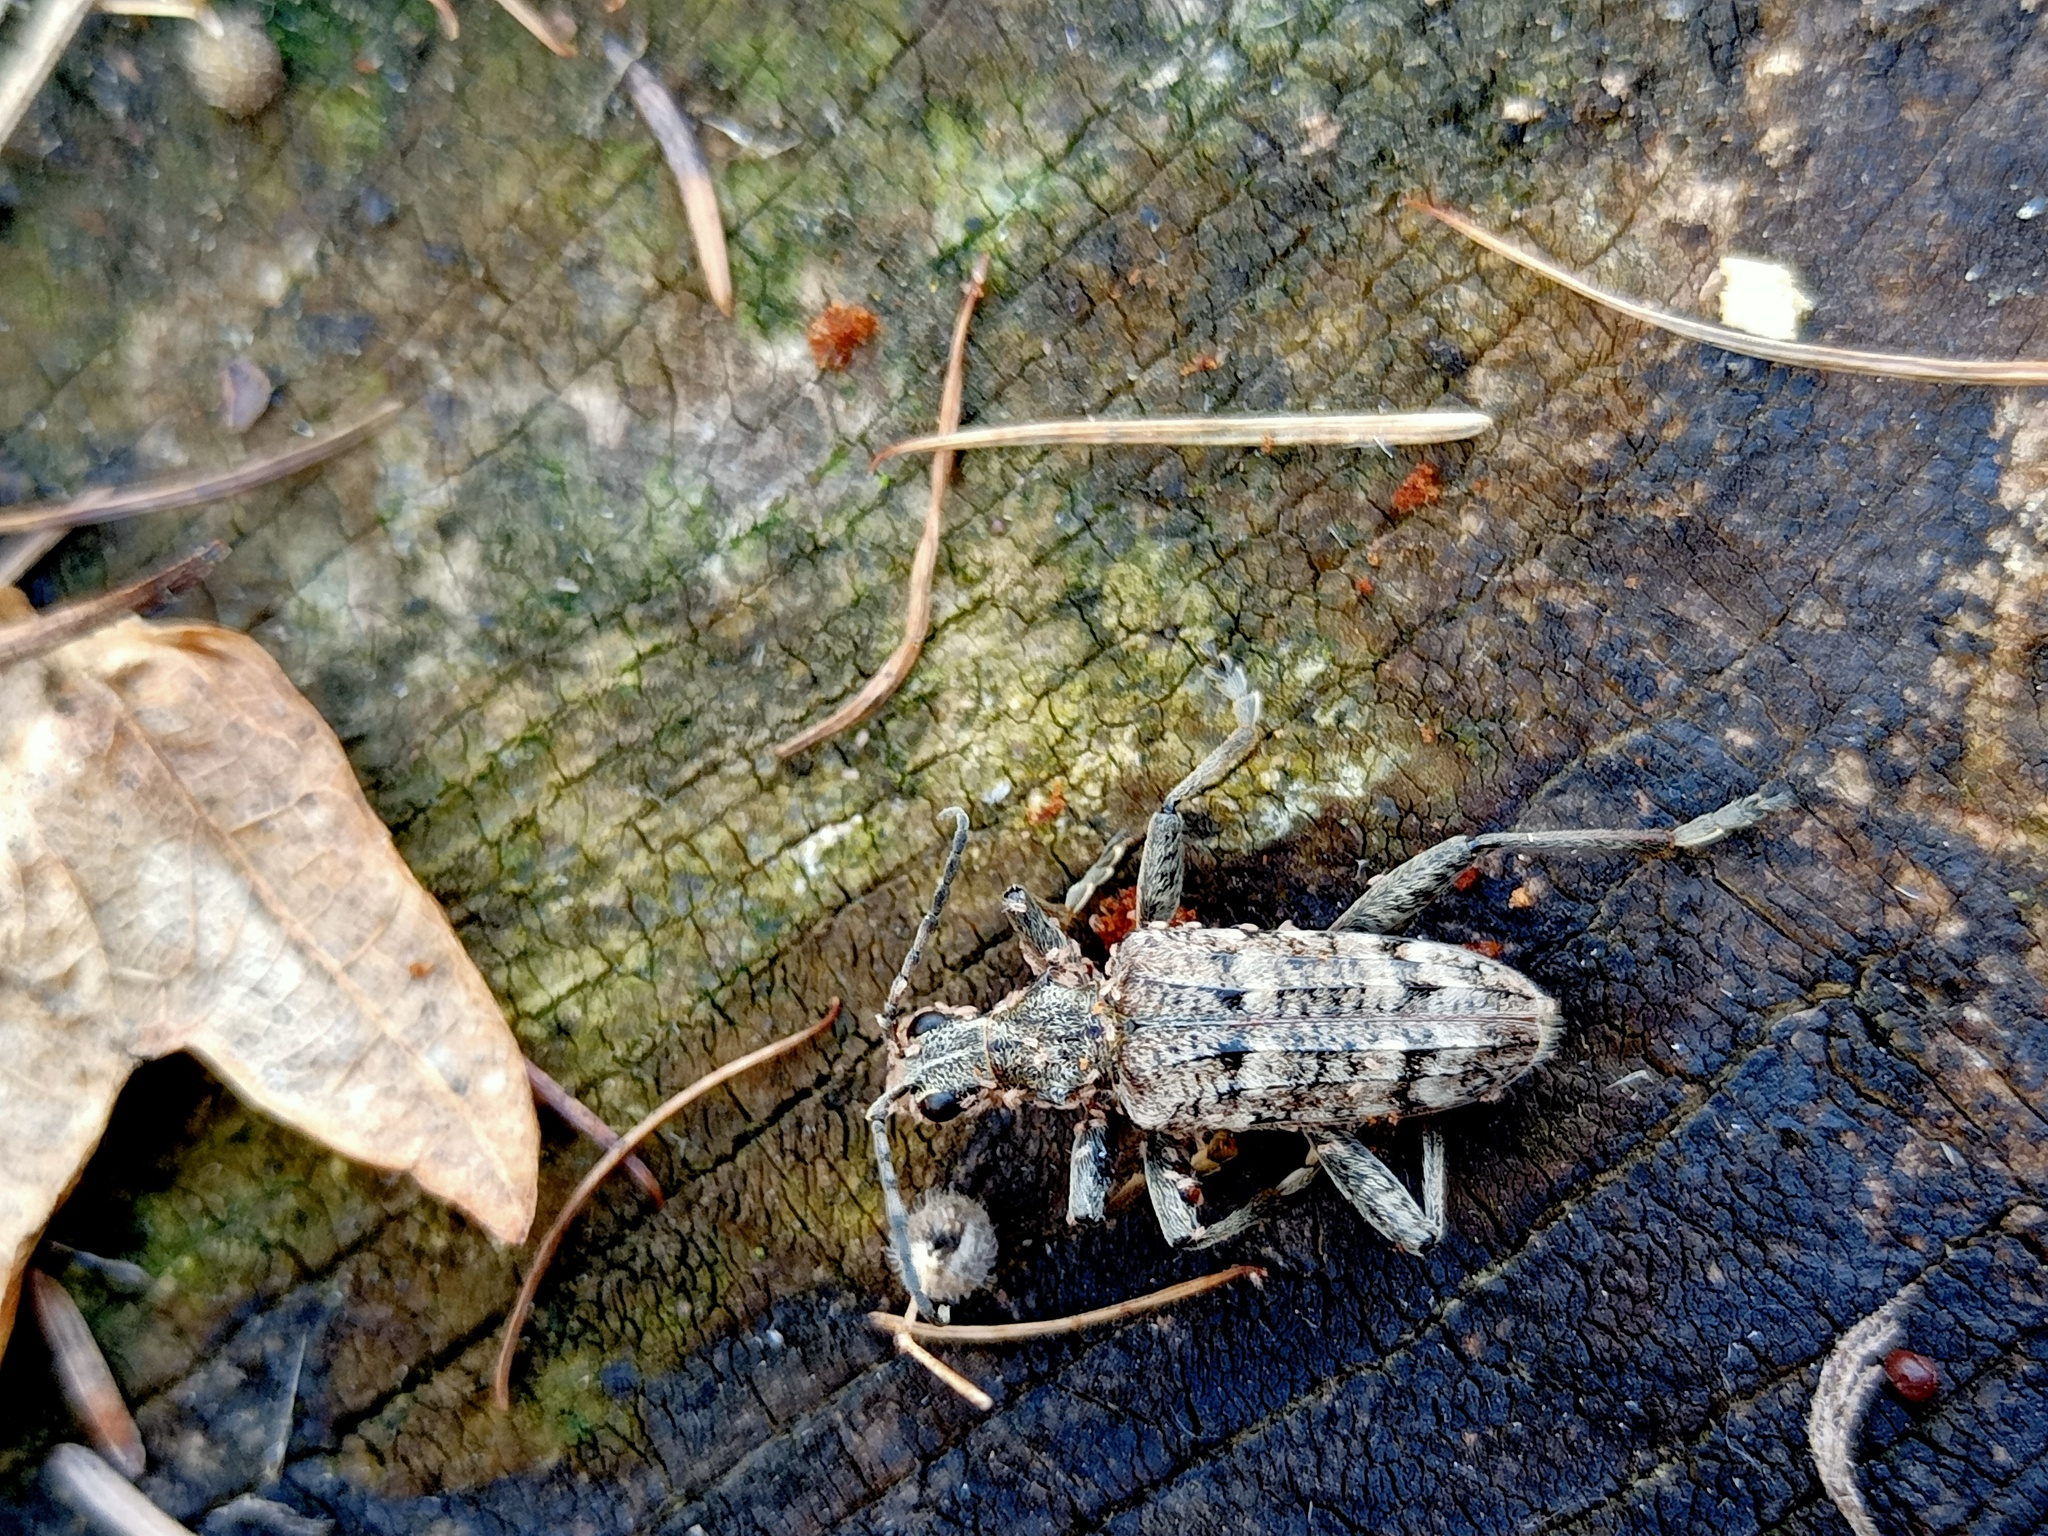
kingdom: Animalia
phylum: Arthropoda
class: Insecta
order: Coleoptera
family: Cerambycidae
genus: Rhagium
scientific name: Rhagium inquisitor
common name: Ribbed pine borer
